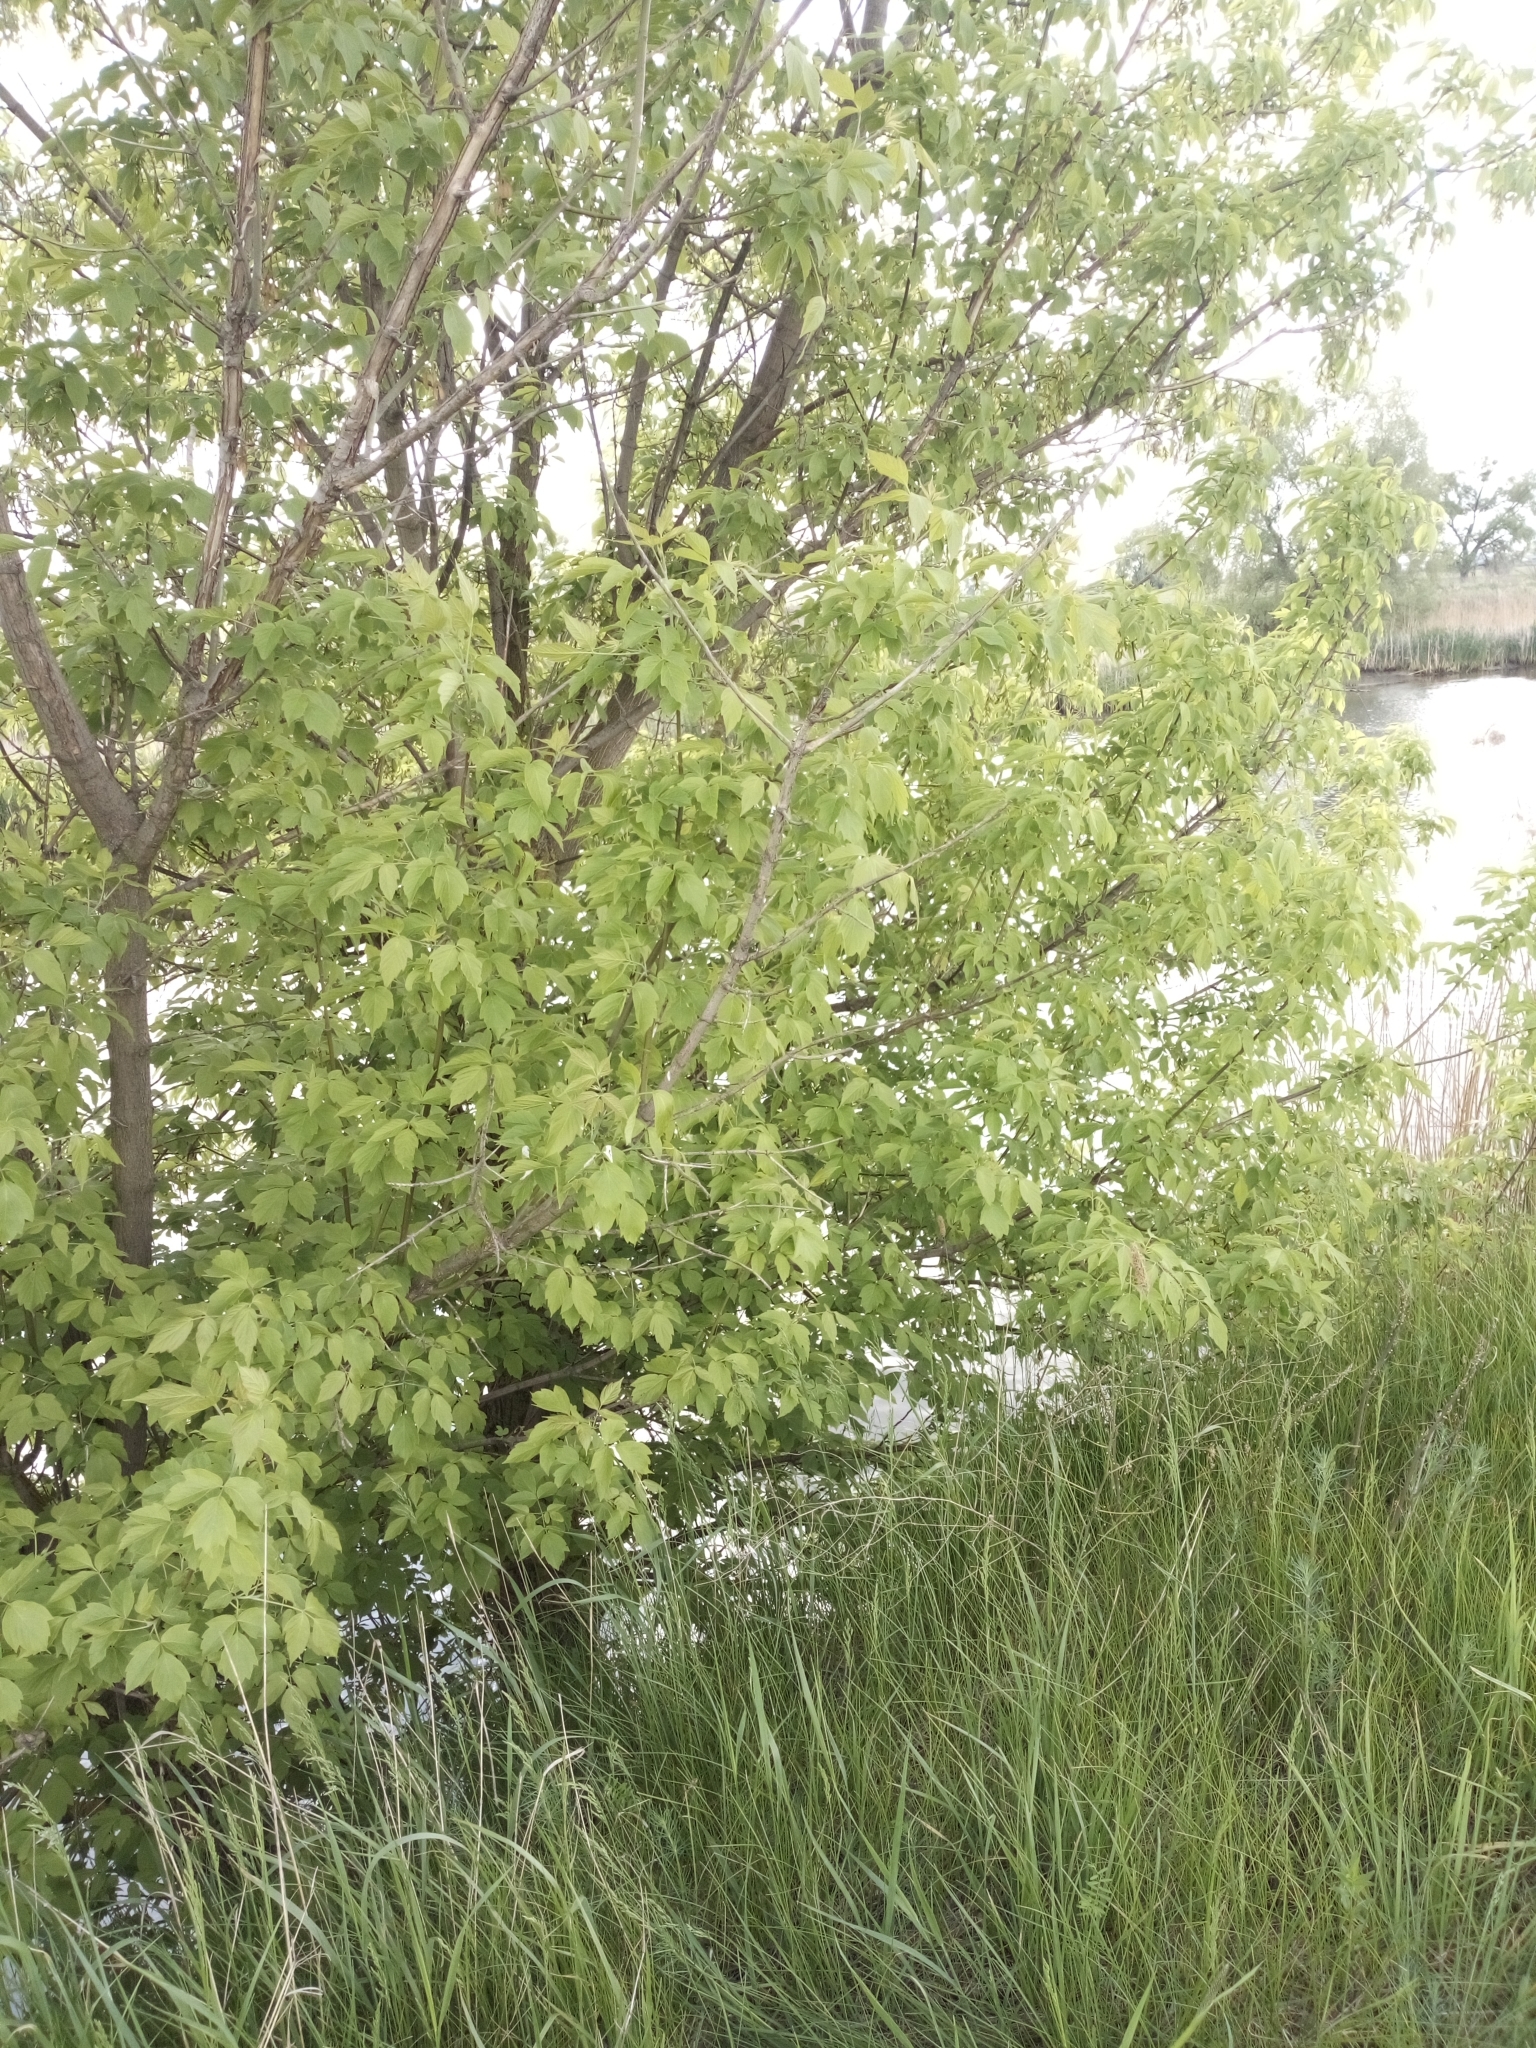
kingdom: Plantae
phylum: Tracheophyta
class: Magnoliopsida
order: Sapindales
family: Sapindaceae
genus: Acer
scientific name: Acer negundo
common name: Ashleaf maple
